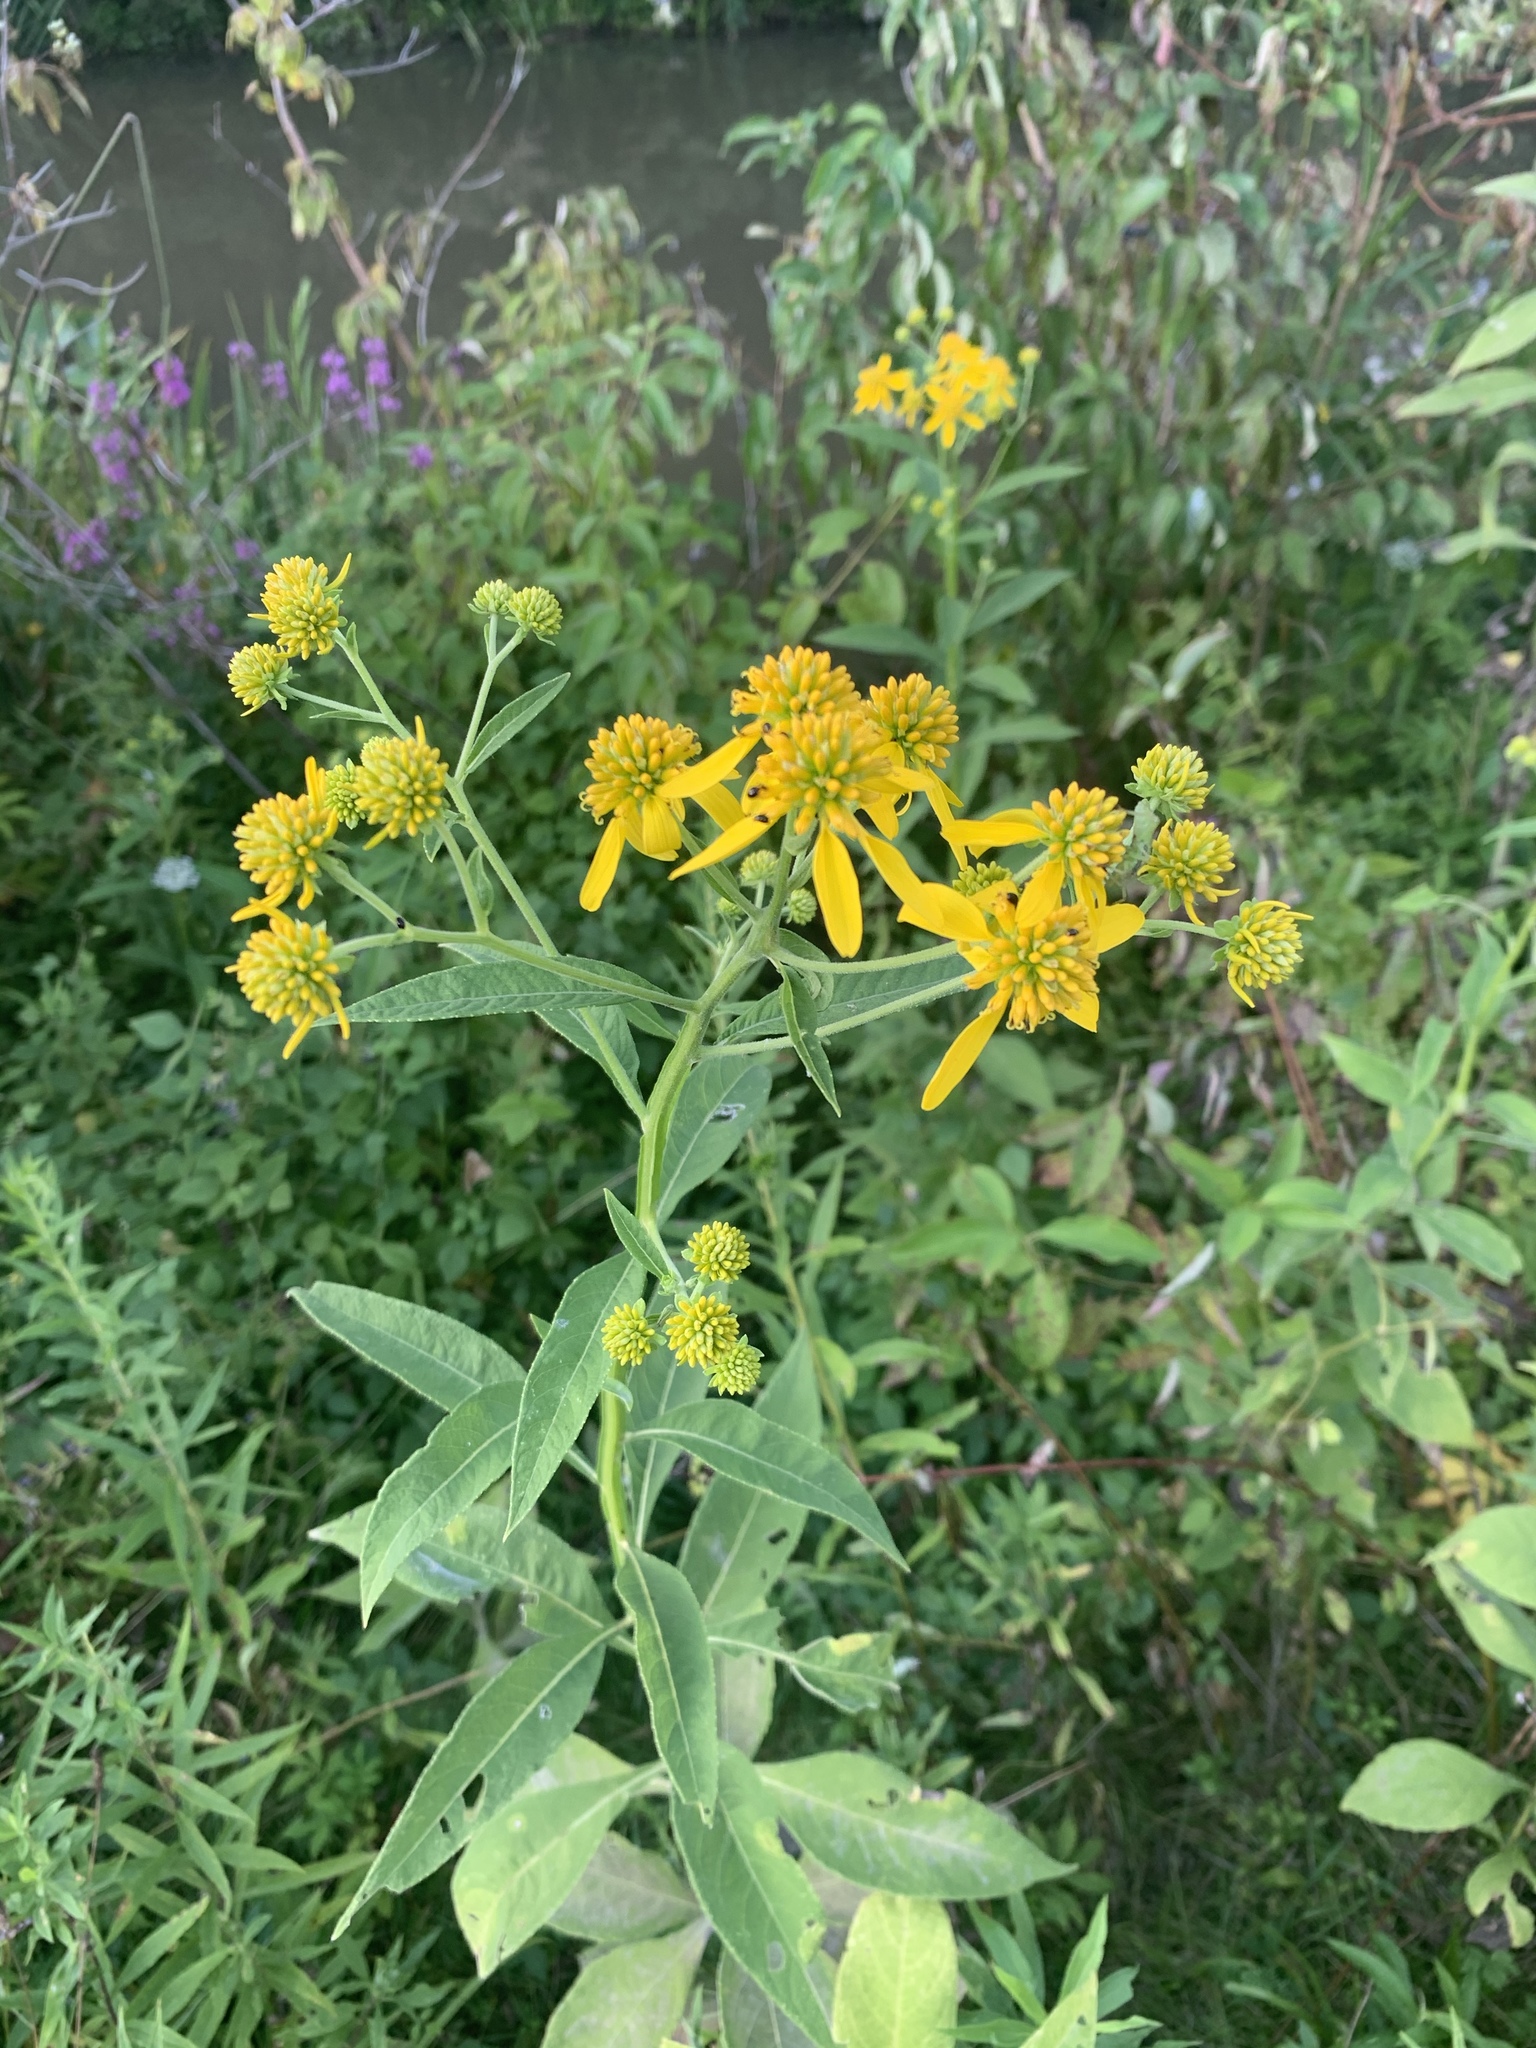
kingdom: Plantae
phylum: Tracheophyta
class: Magnoliopsida
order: Asterales
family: Asteraceae
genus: Verbesina
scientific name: Verbesina alternifolia
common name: Wingstem
